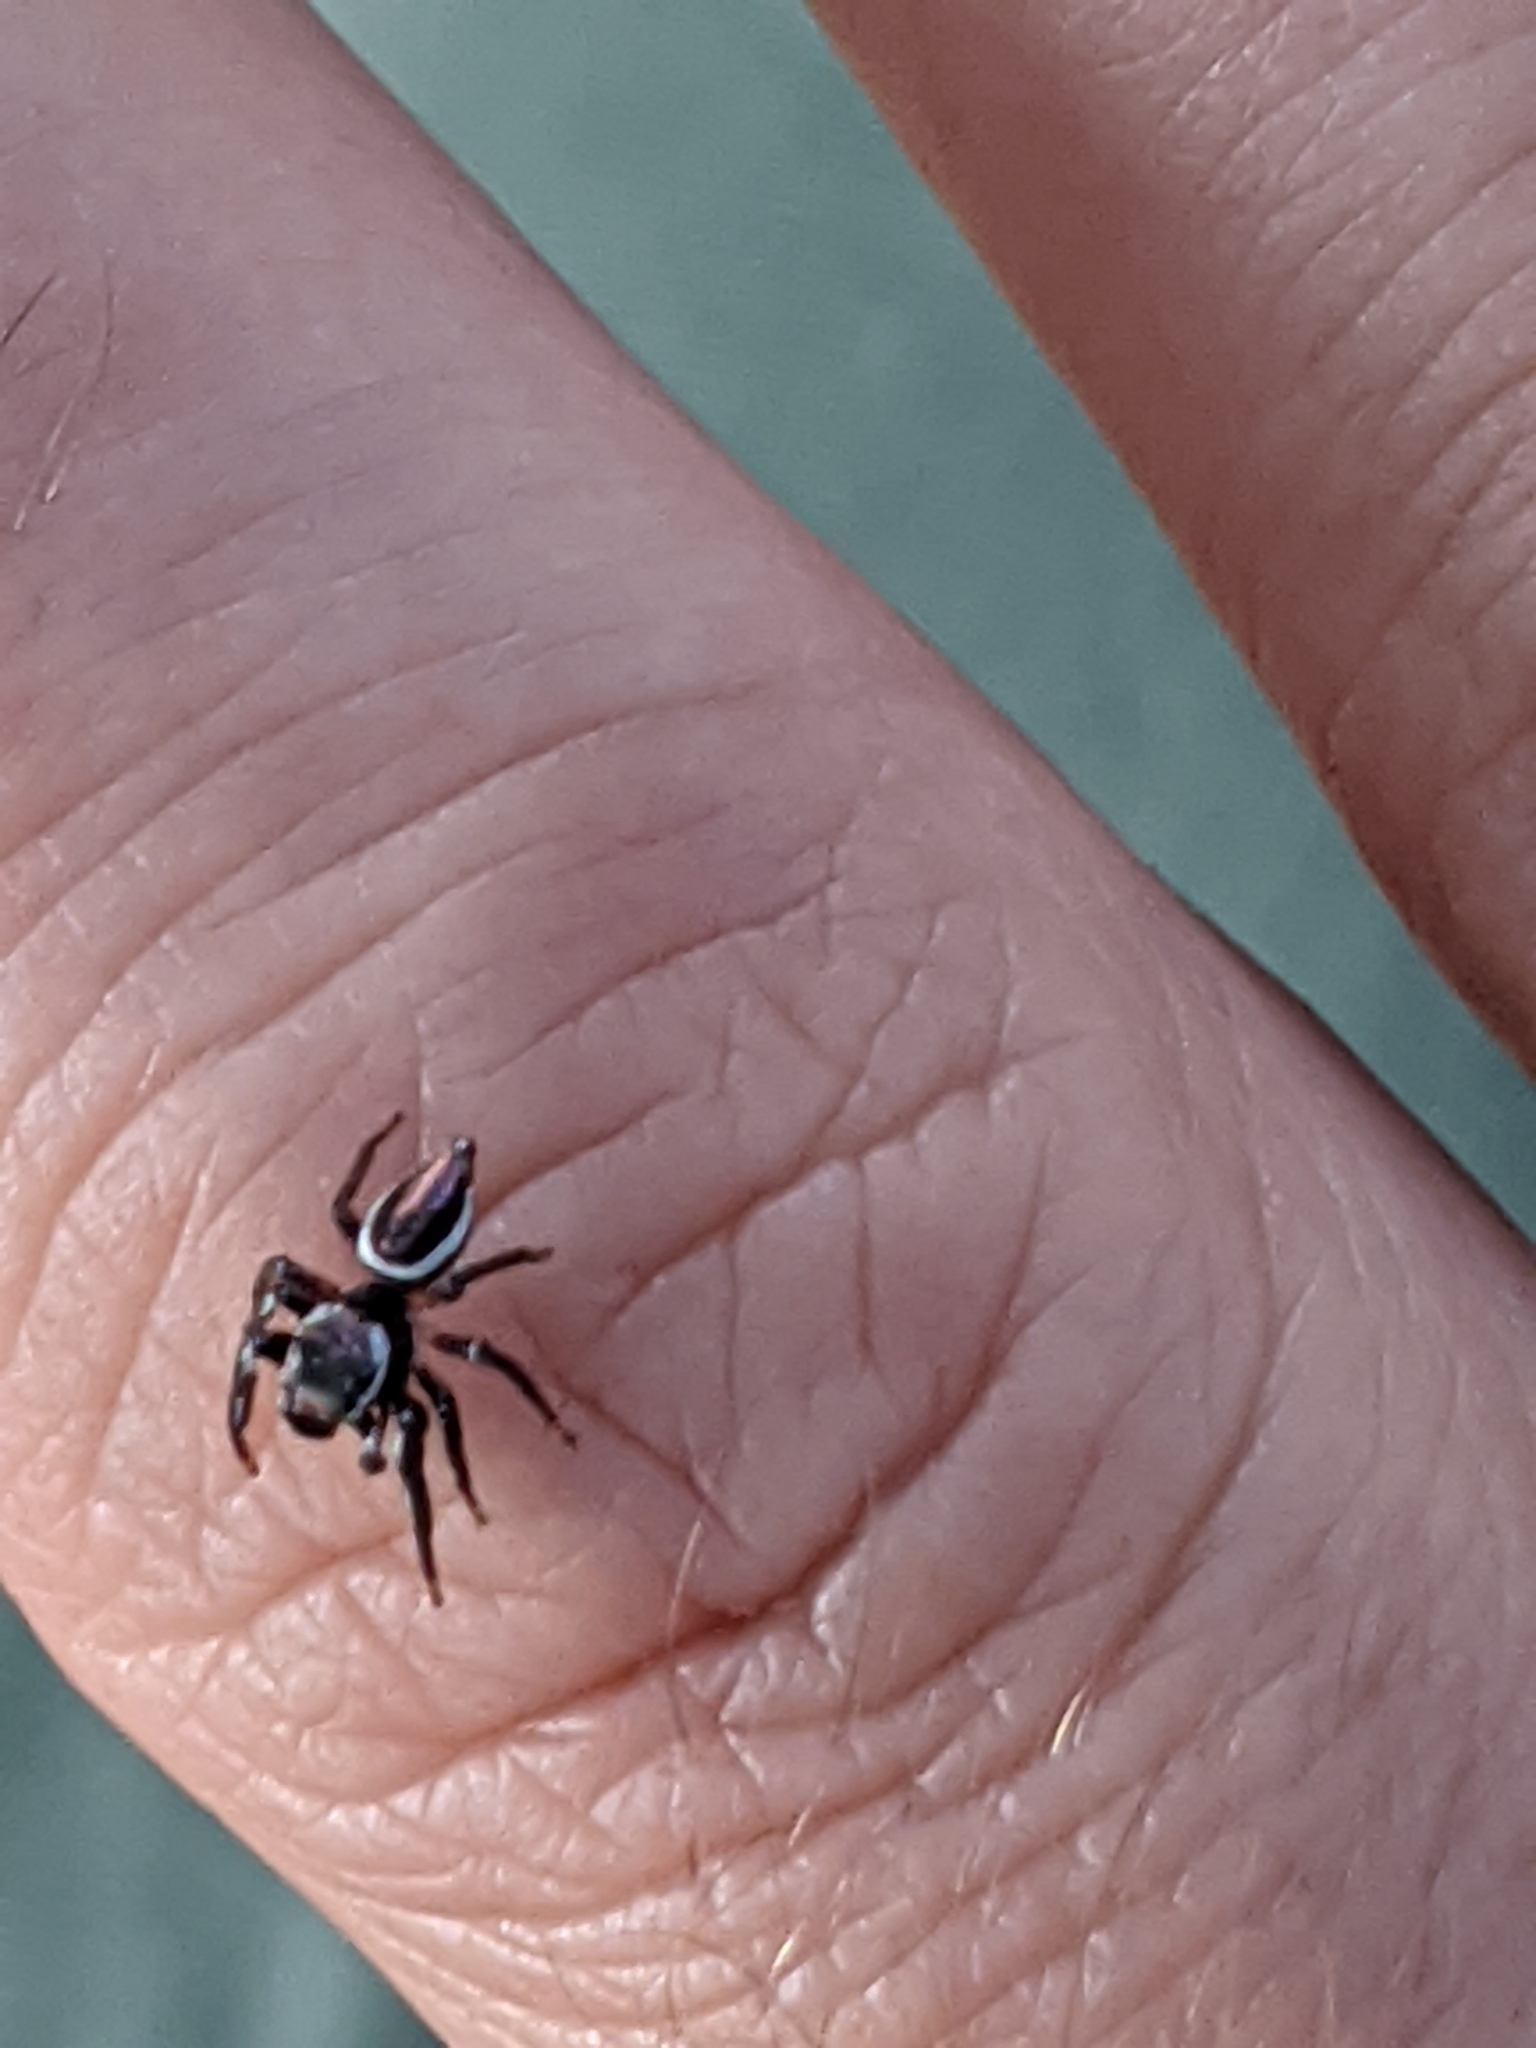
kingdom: Animalia
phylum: Arthropoda
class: Arachnida
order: Araneae
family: Salticidae
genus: Eris
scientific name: Eris militaris
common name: Bronze jumper
